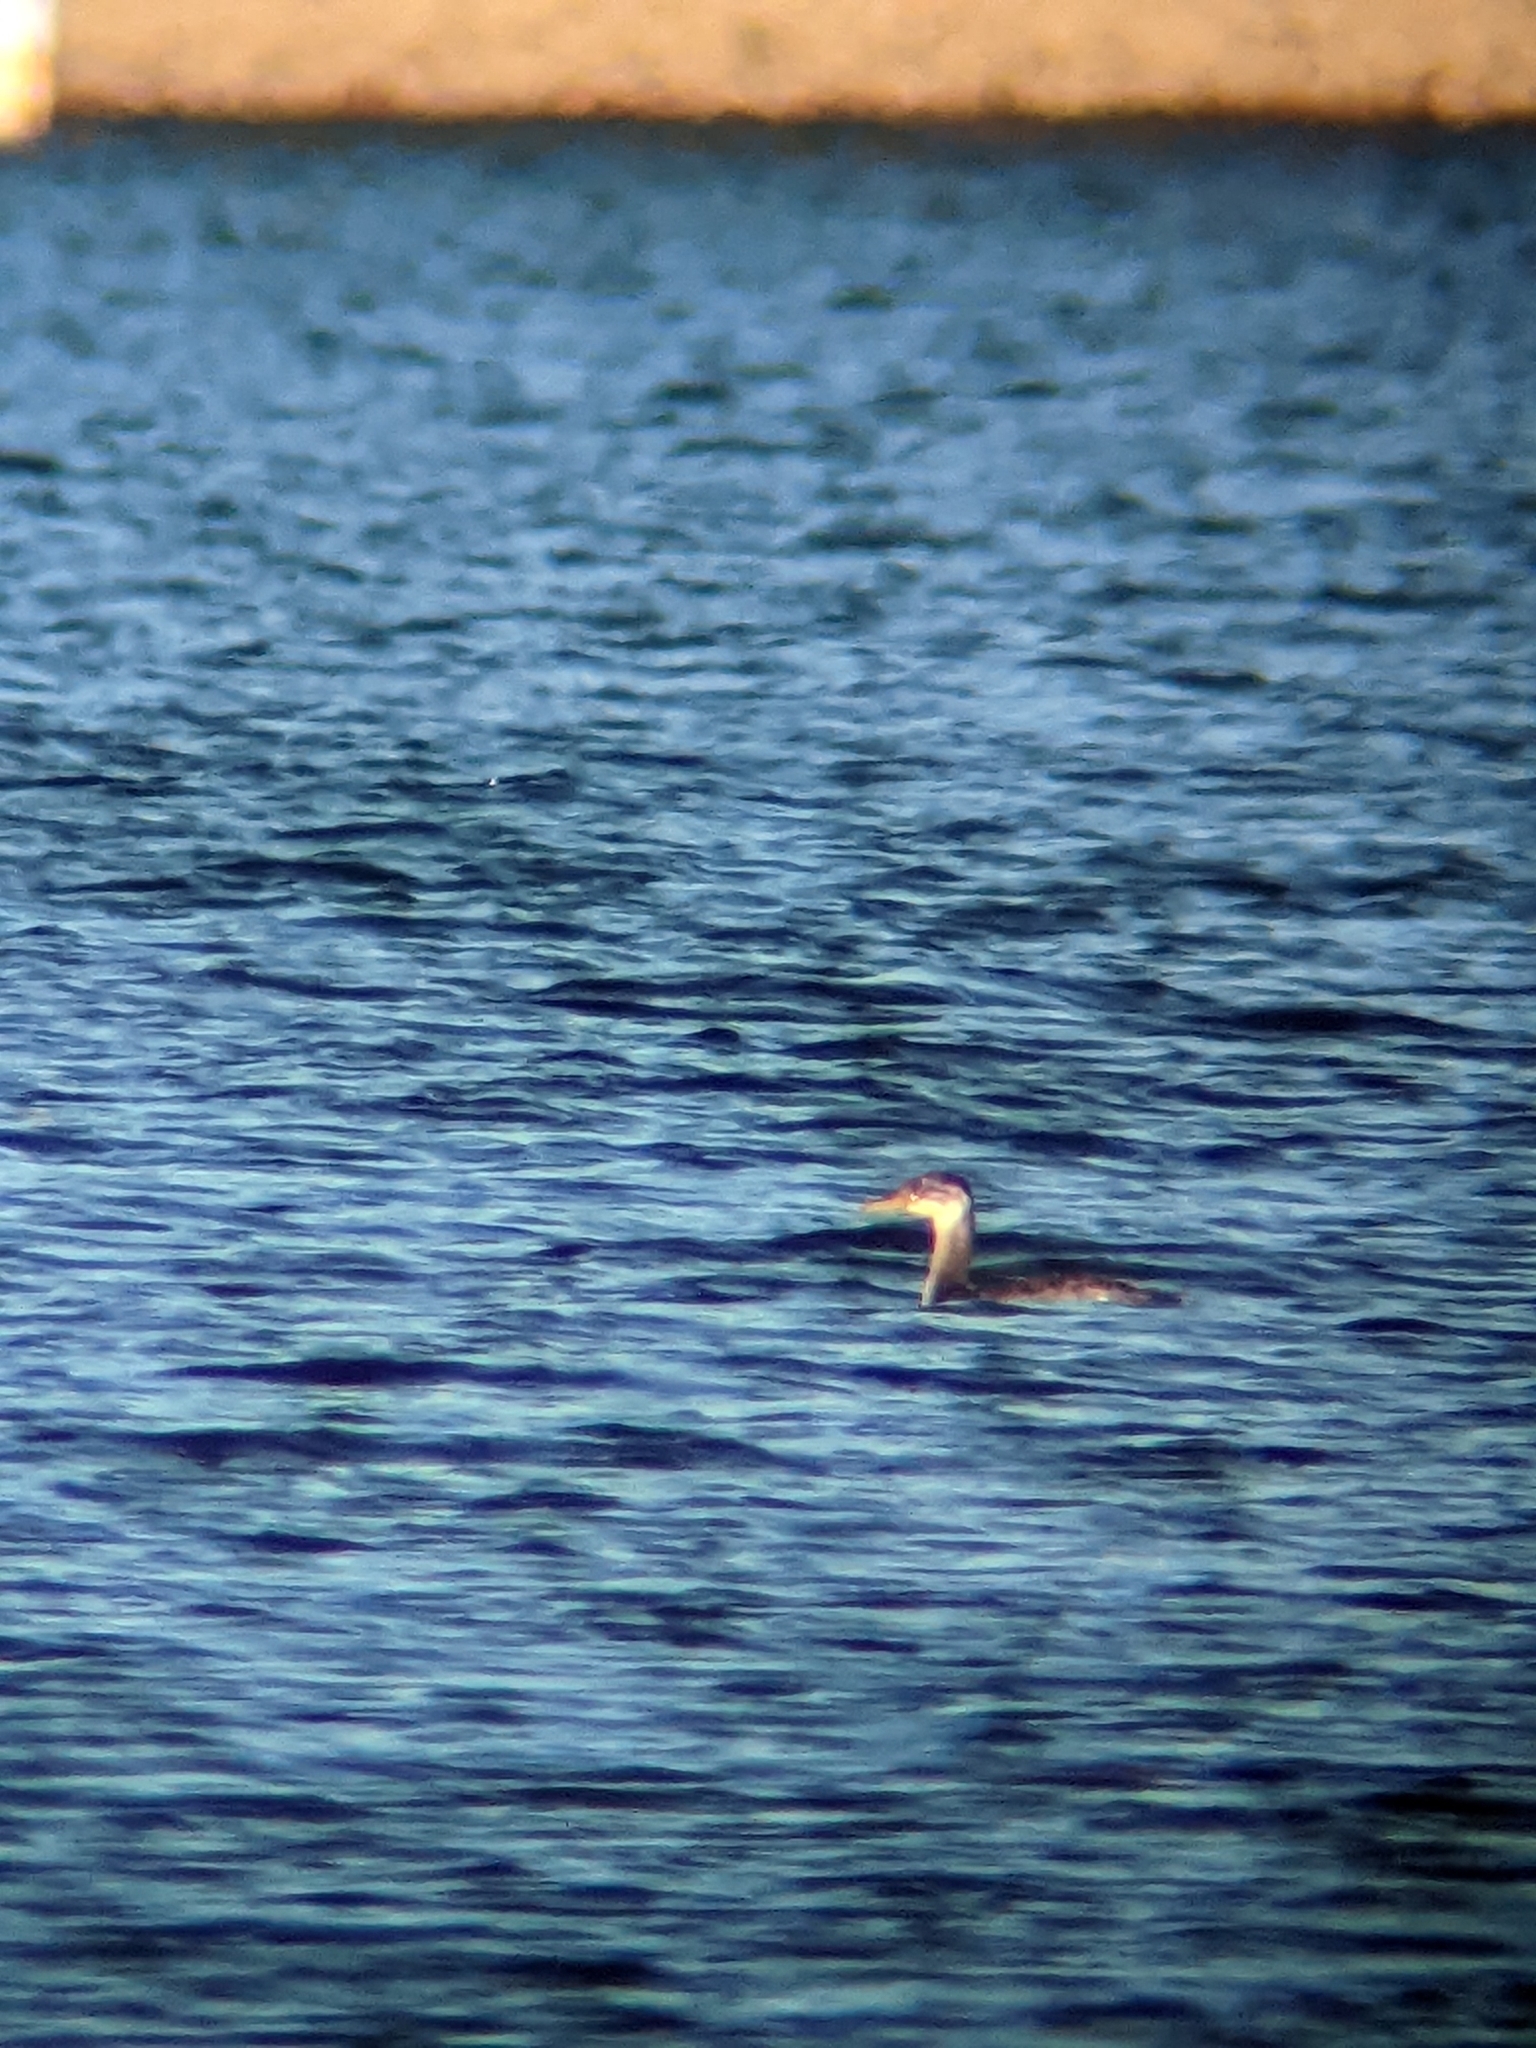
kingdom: Animalia
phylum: Chordata
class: Aves
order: Podicipediformes
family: Podicipedidae
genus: Podiceps
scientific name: Podiceps grisegena
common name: Red-necked grebe
